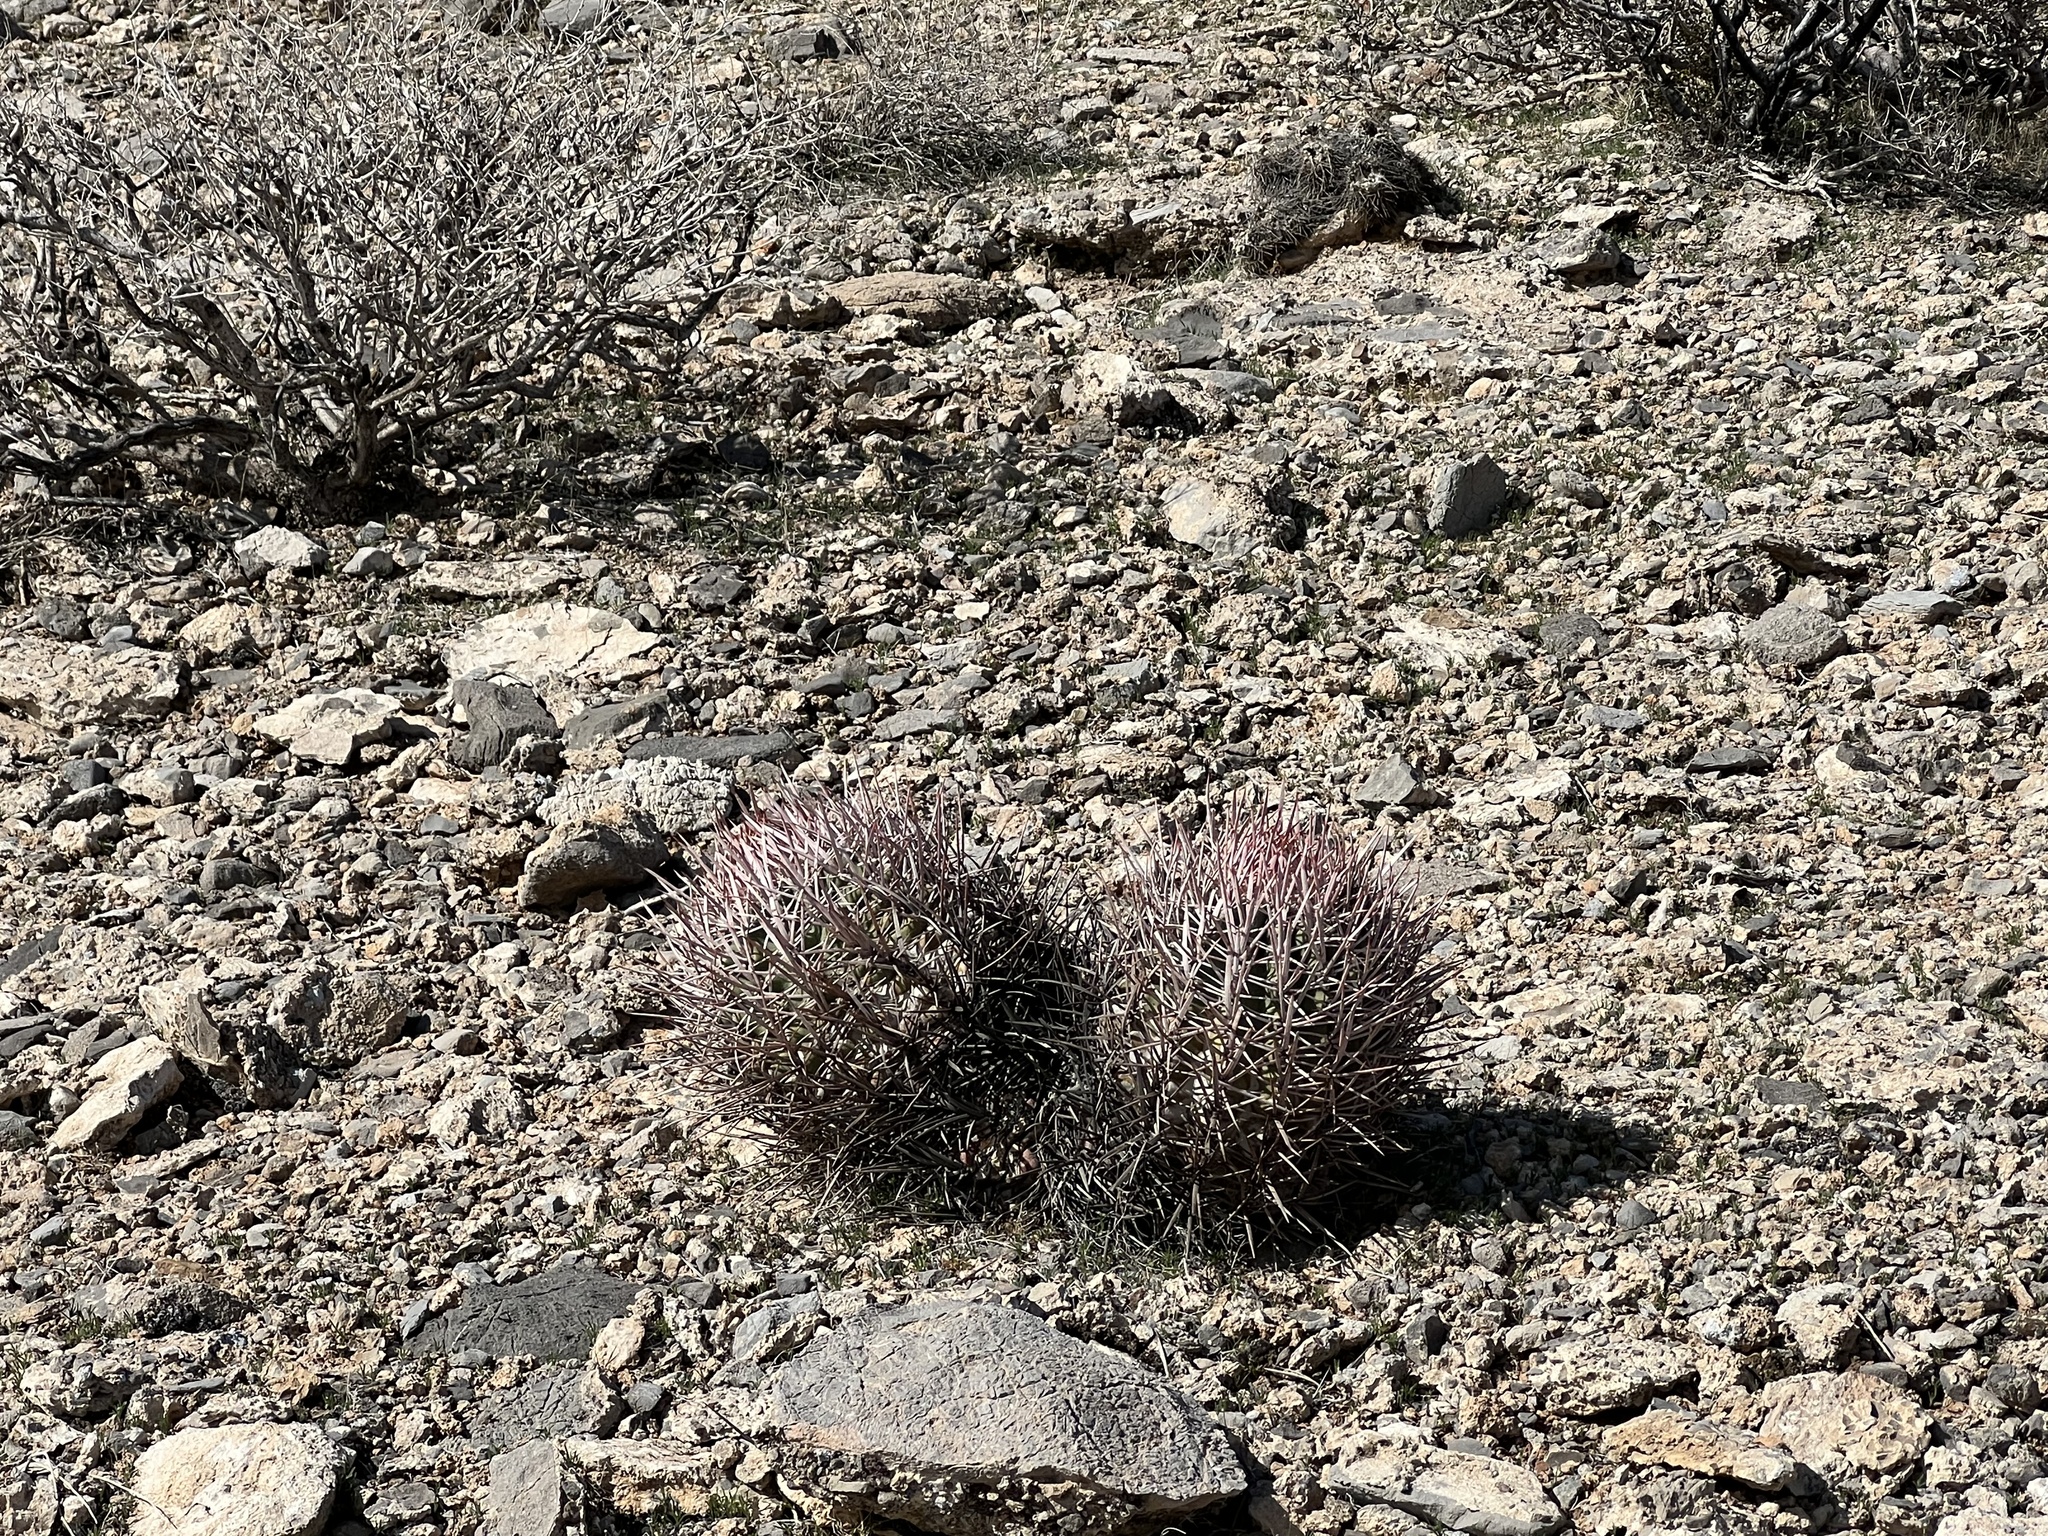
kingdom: Plantae
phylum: Tracheophyta
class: Magnoliopsida
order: Caryophyllales
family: Cactaceae
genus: Echinocactus
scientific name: Echinocactus polycephalus
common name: Cottontop cactus
